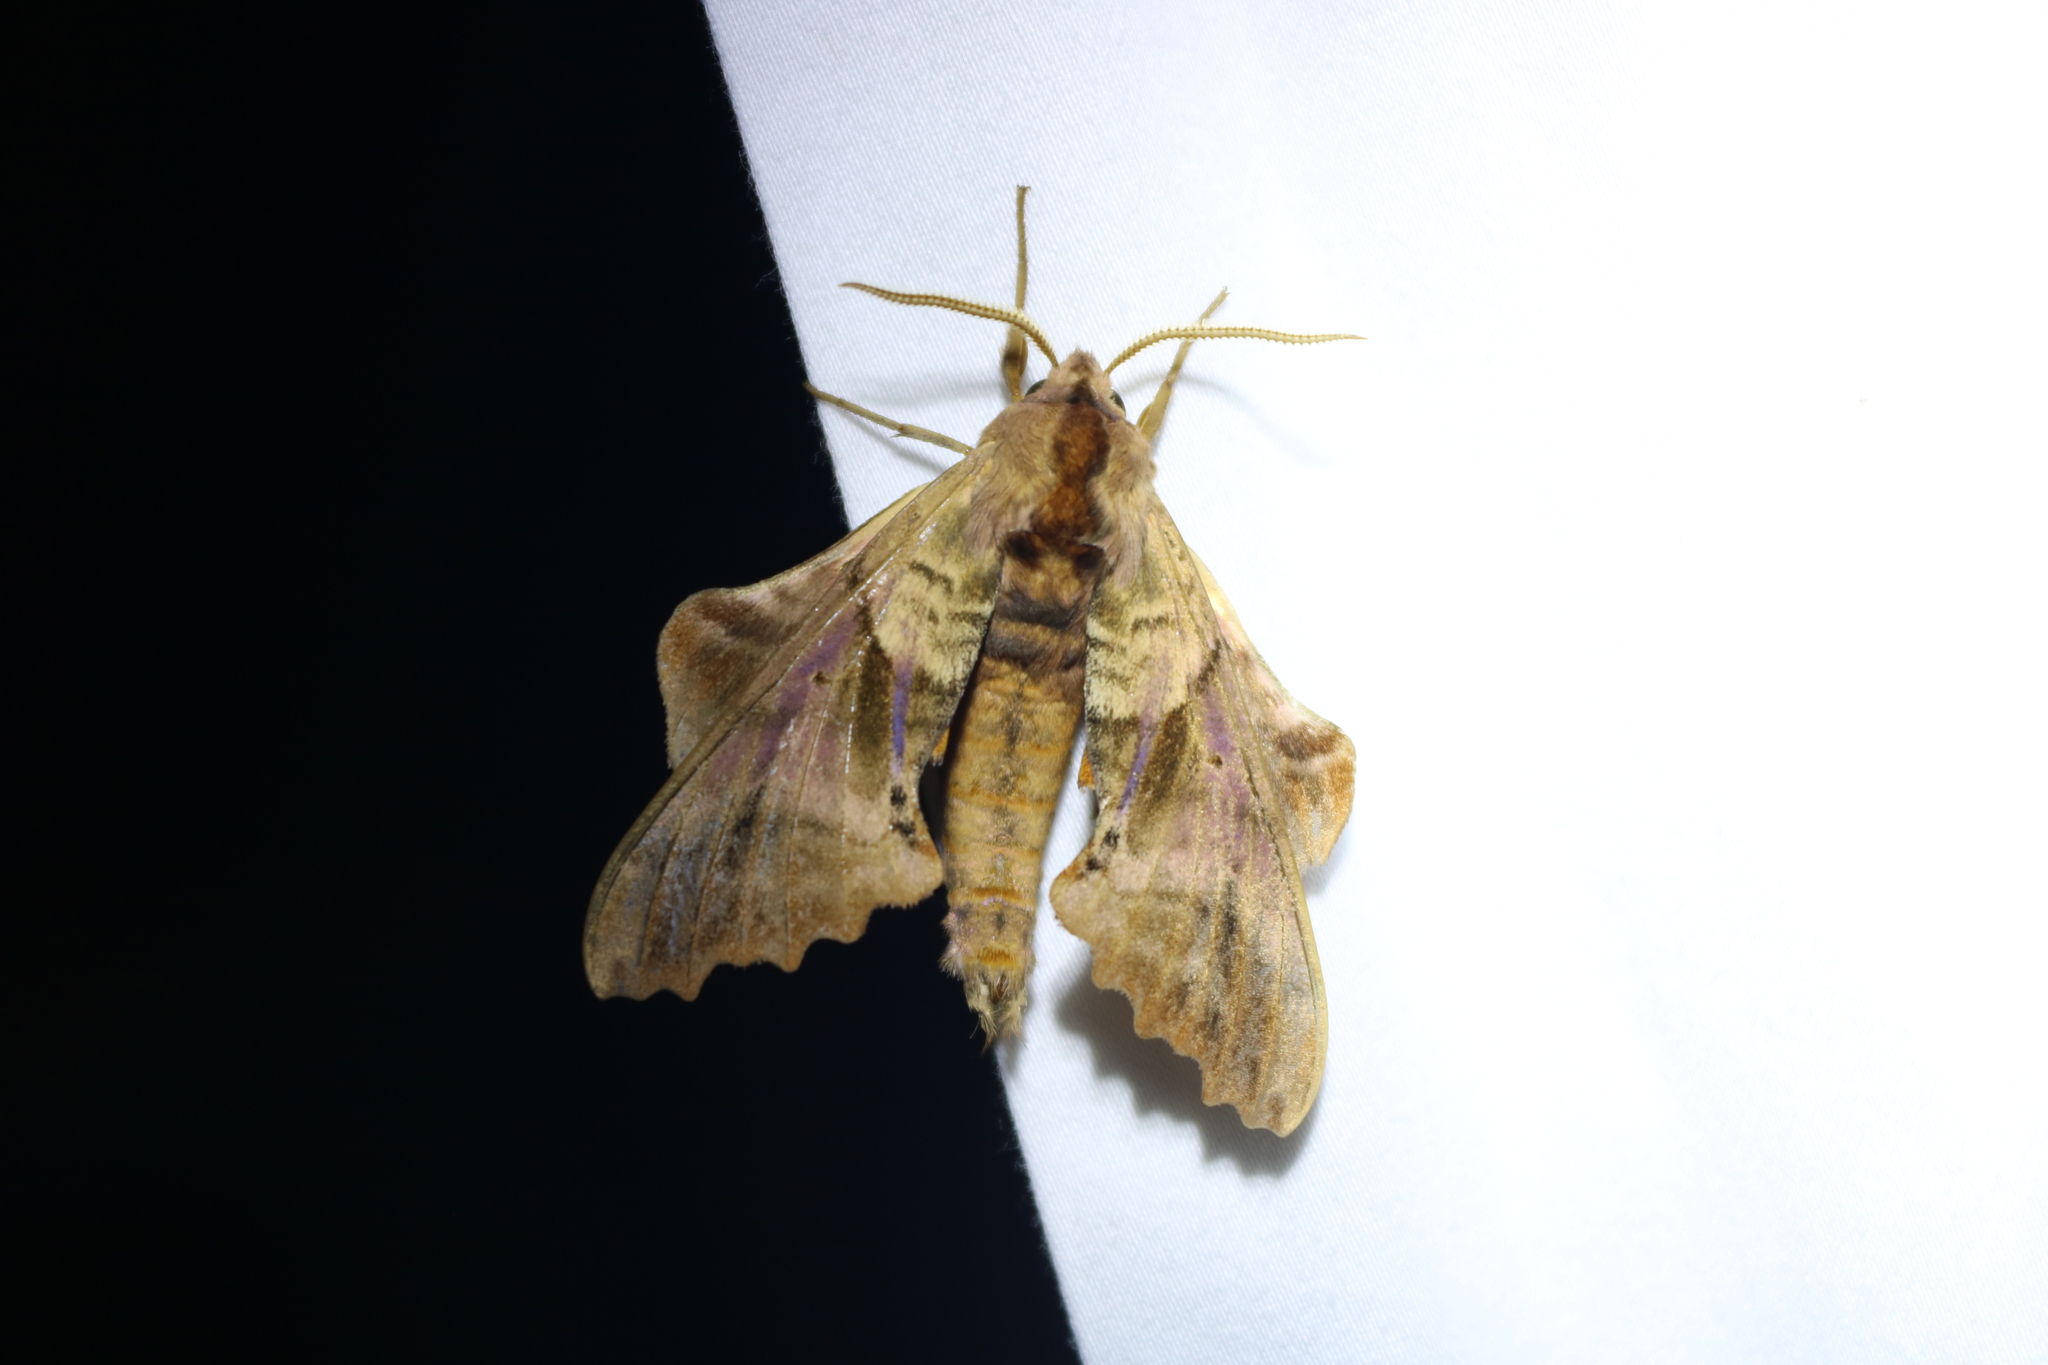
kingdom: Animalia
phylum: Arthropoda
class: Insecta
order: Lepidoptera
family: Sphingidae
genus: Paonias
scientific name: Paonias excaecata
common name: Blind-eyed sphinx
